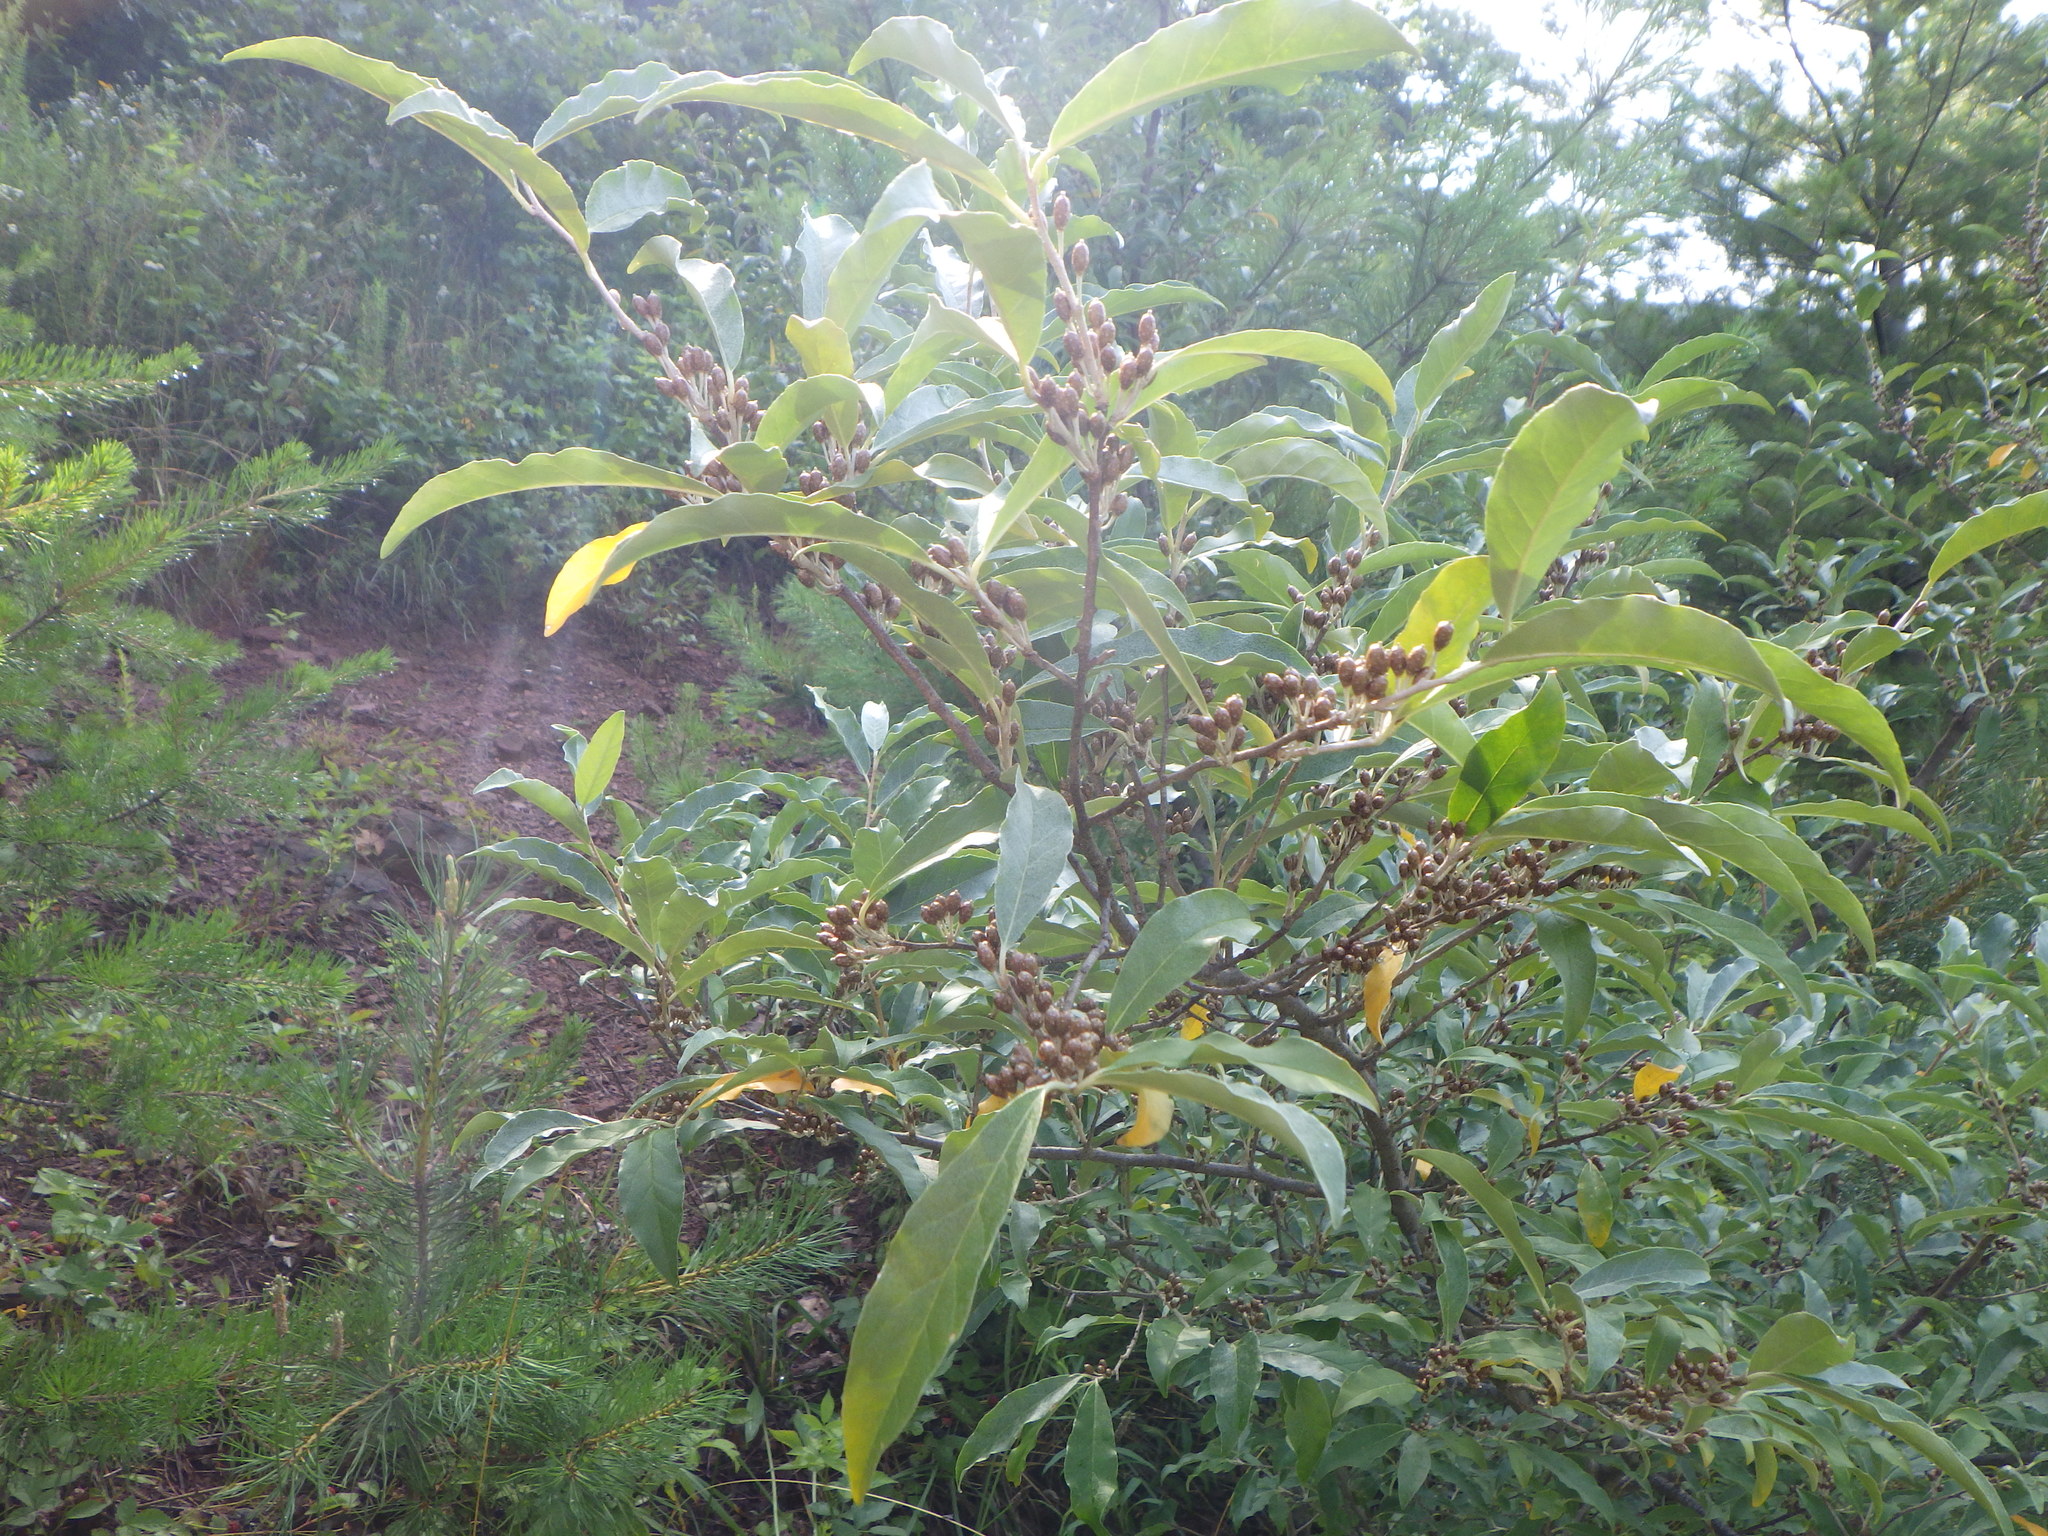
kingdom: Plantae
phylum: Tracheophyta
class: Magnoliopsida
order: Rosales
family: Elaeagnaceae
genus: Elaeagnus
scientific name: Elaeagnus umbellata
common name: Autumn olive
